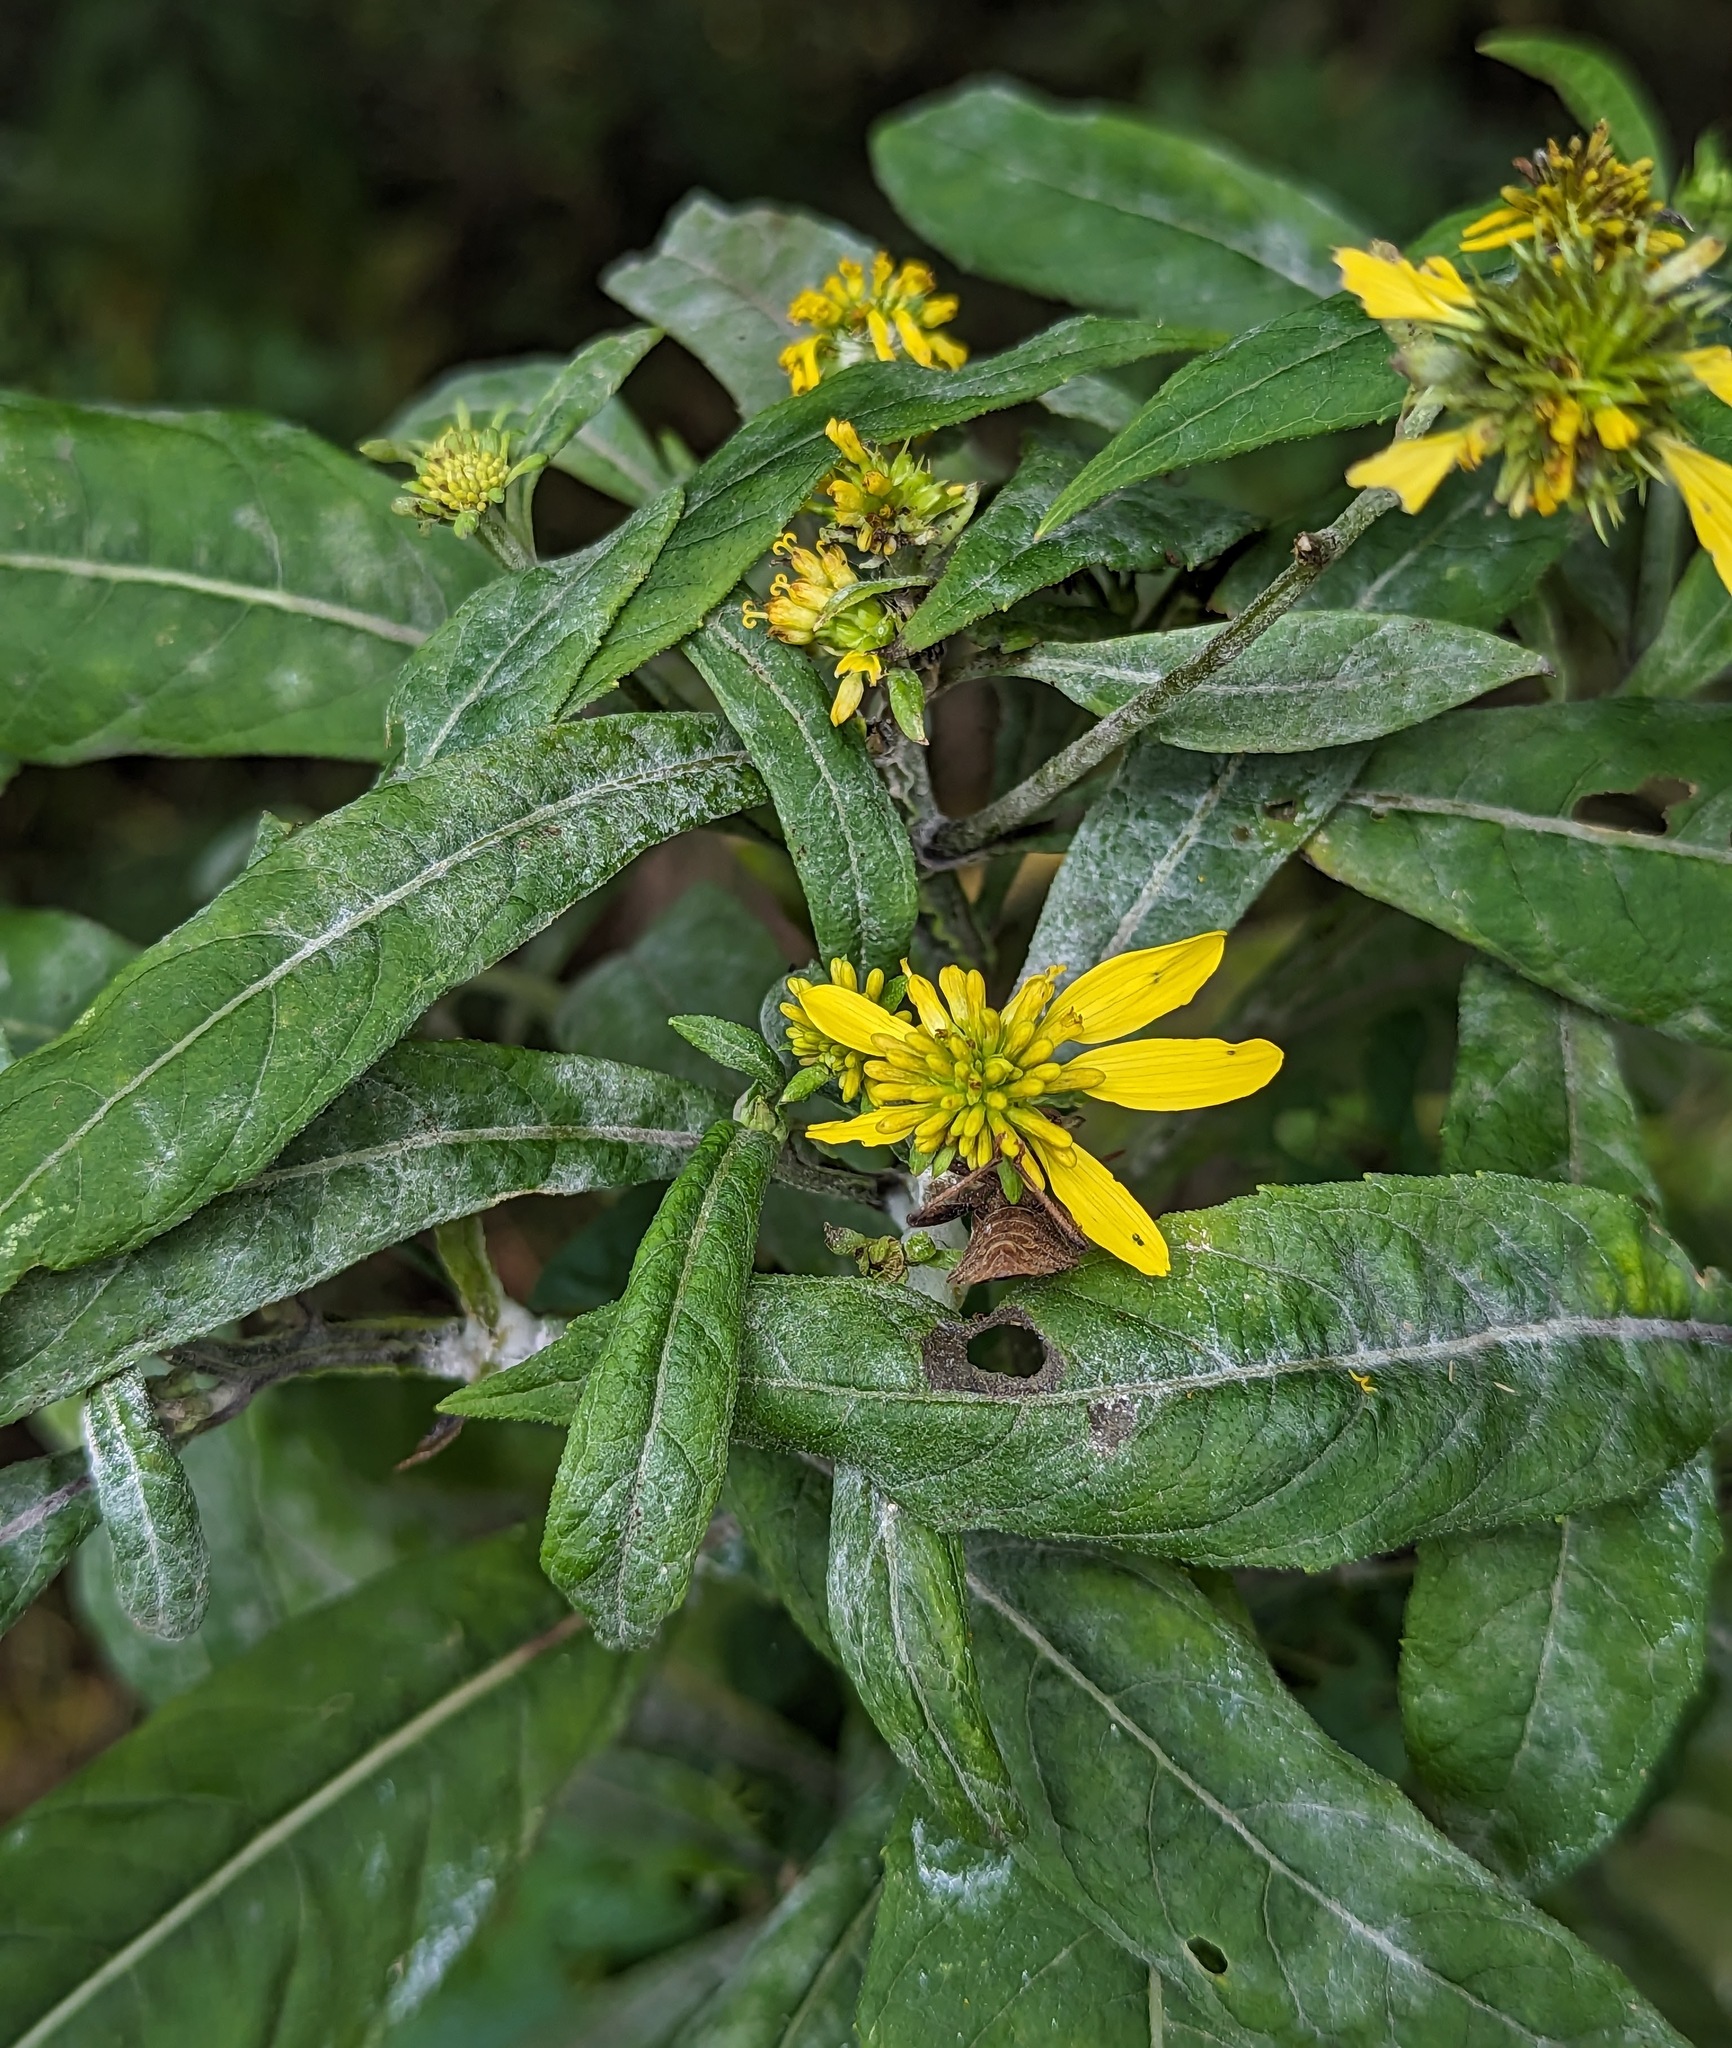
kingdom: Plantae
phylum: Tracheophyta
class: Magnoliopsida
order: Asterales
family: Asteraceae
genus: Verbesina
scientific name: Verbesina alternifolia
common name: Wingstem
